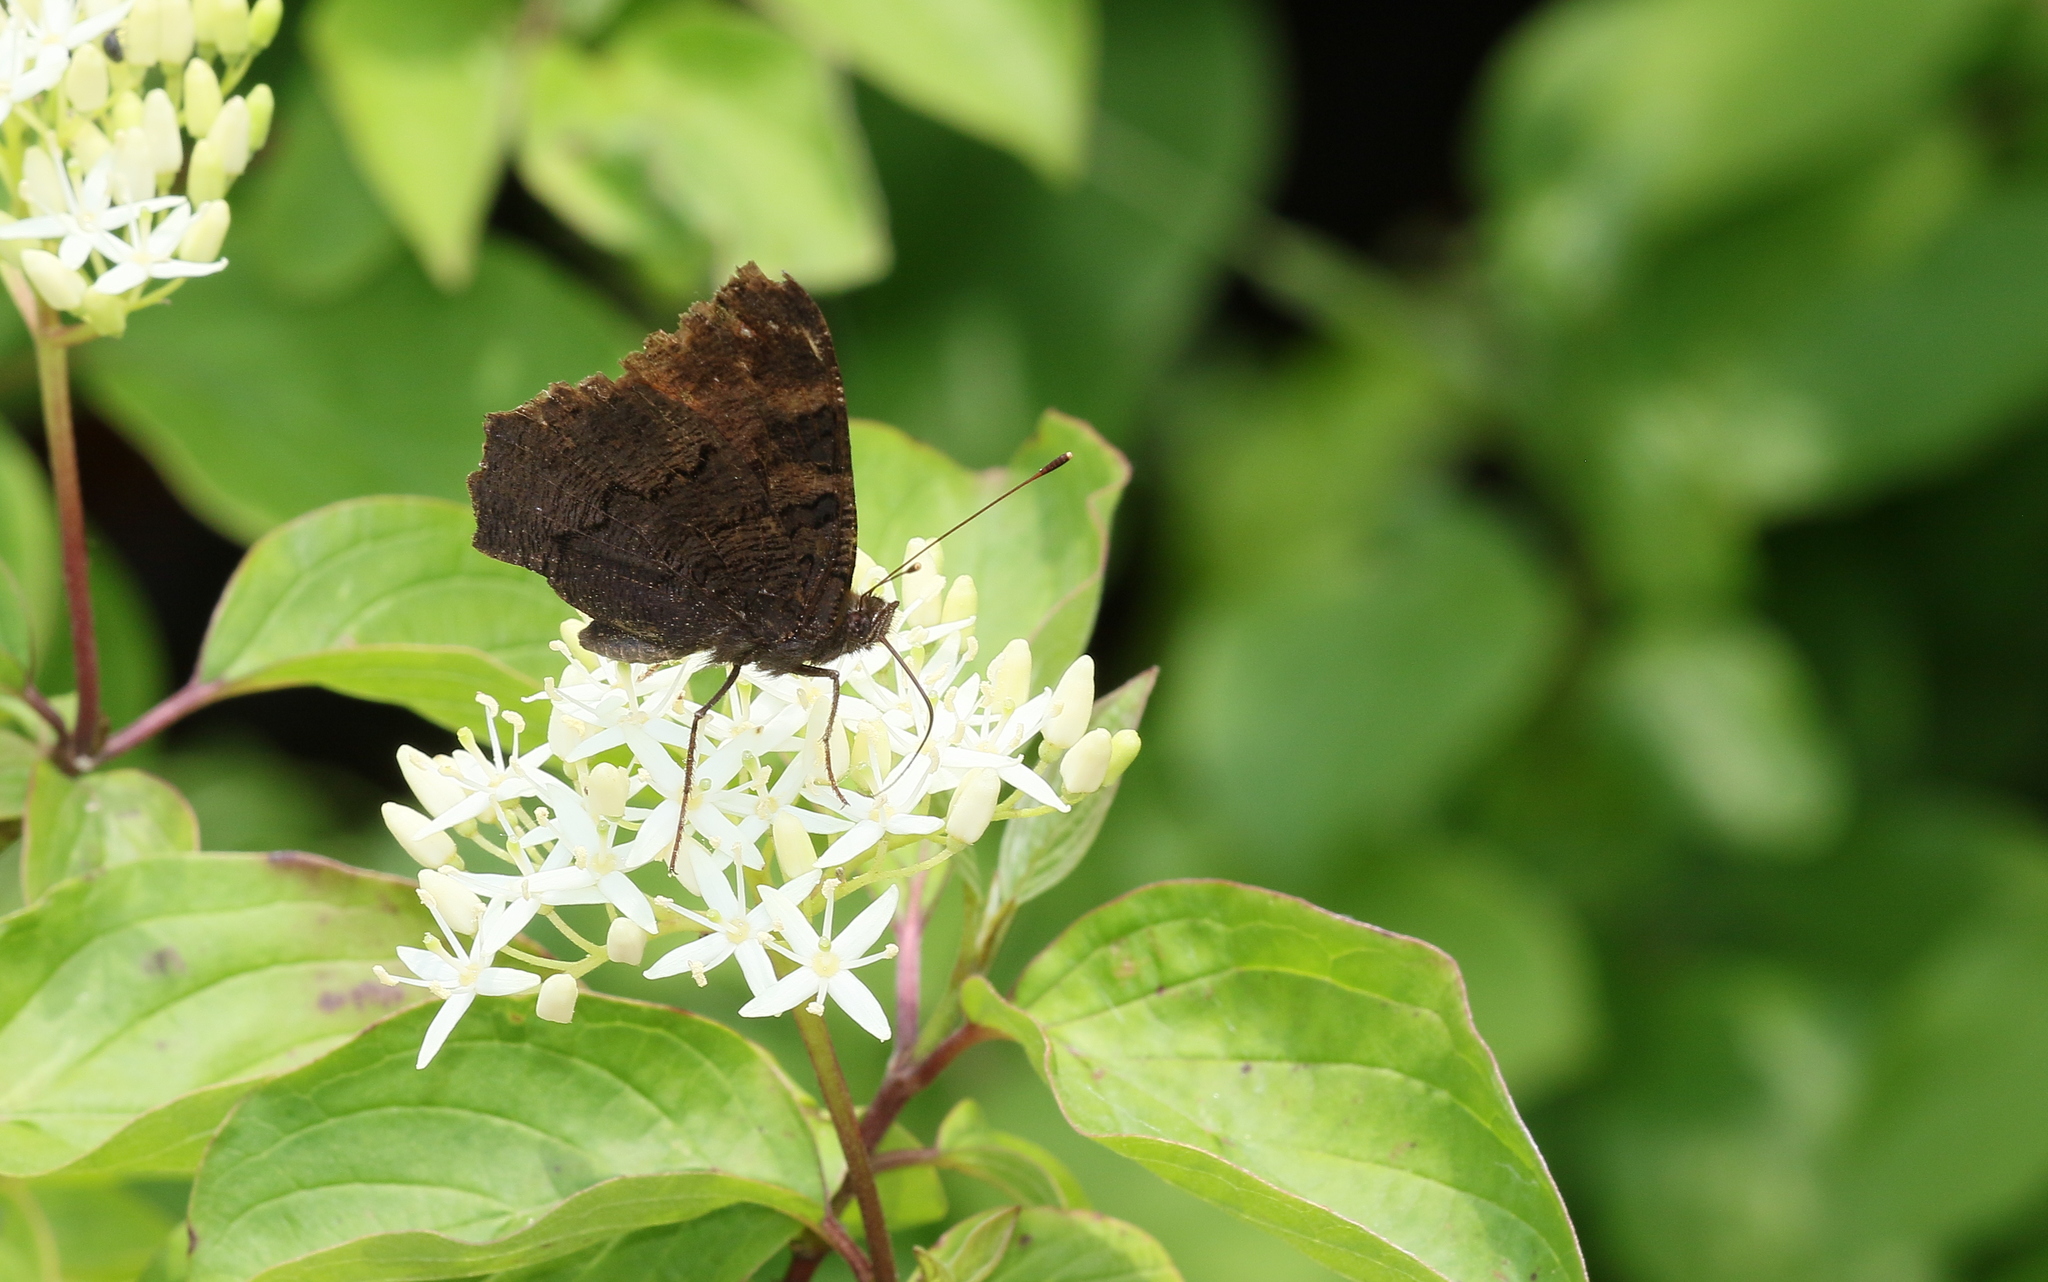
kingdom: Animalia
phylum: Arthropoda
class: Insecta
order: Lepidoptera
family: Nymphalidae
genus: Aglais
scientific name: Aglais io
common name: Peacock
